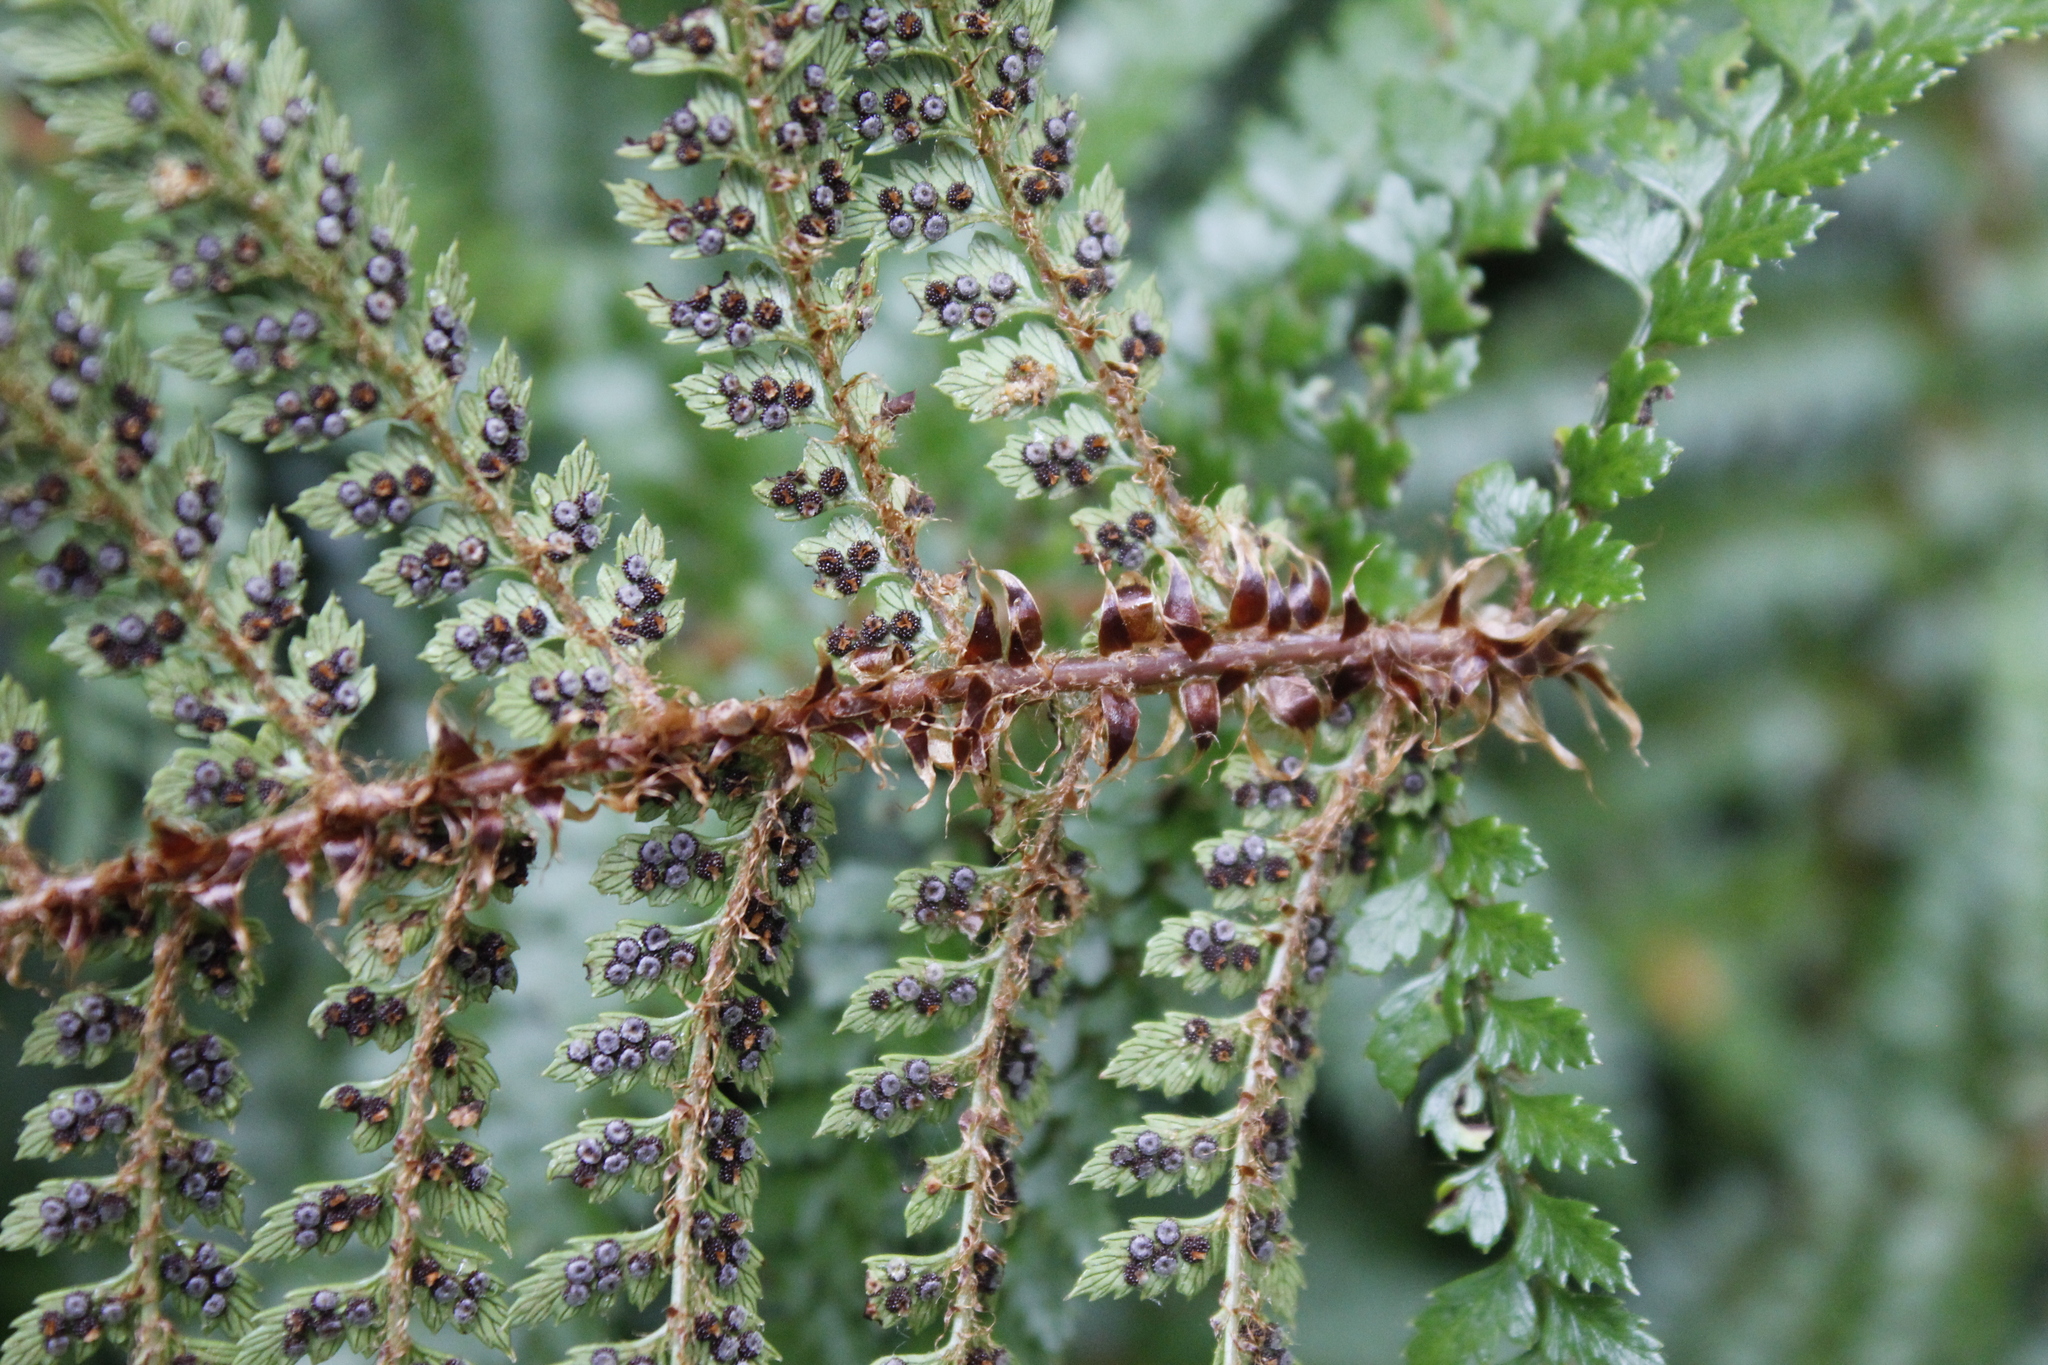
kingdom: Plantae
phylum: Tracheophyta
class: Polypodiopsida
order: Polypodiales
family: Dryopteridaceae
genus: Polystichum
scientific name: Polystichum vestitum
